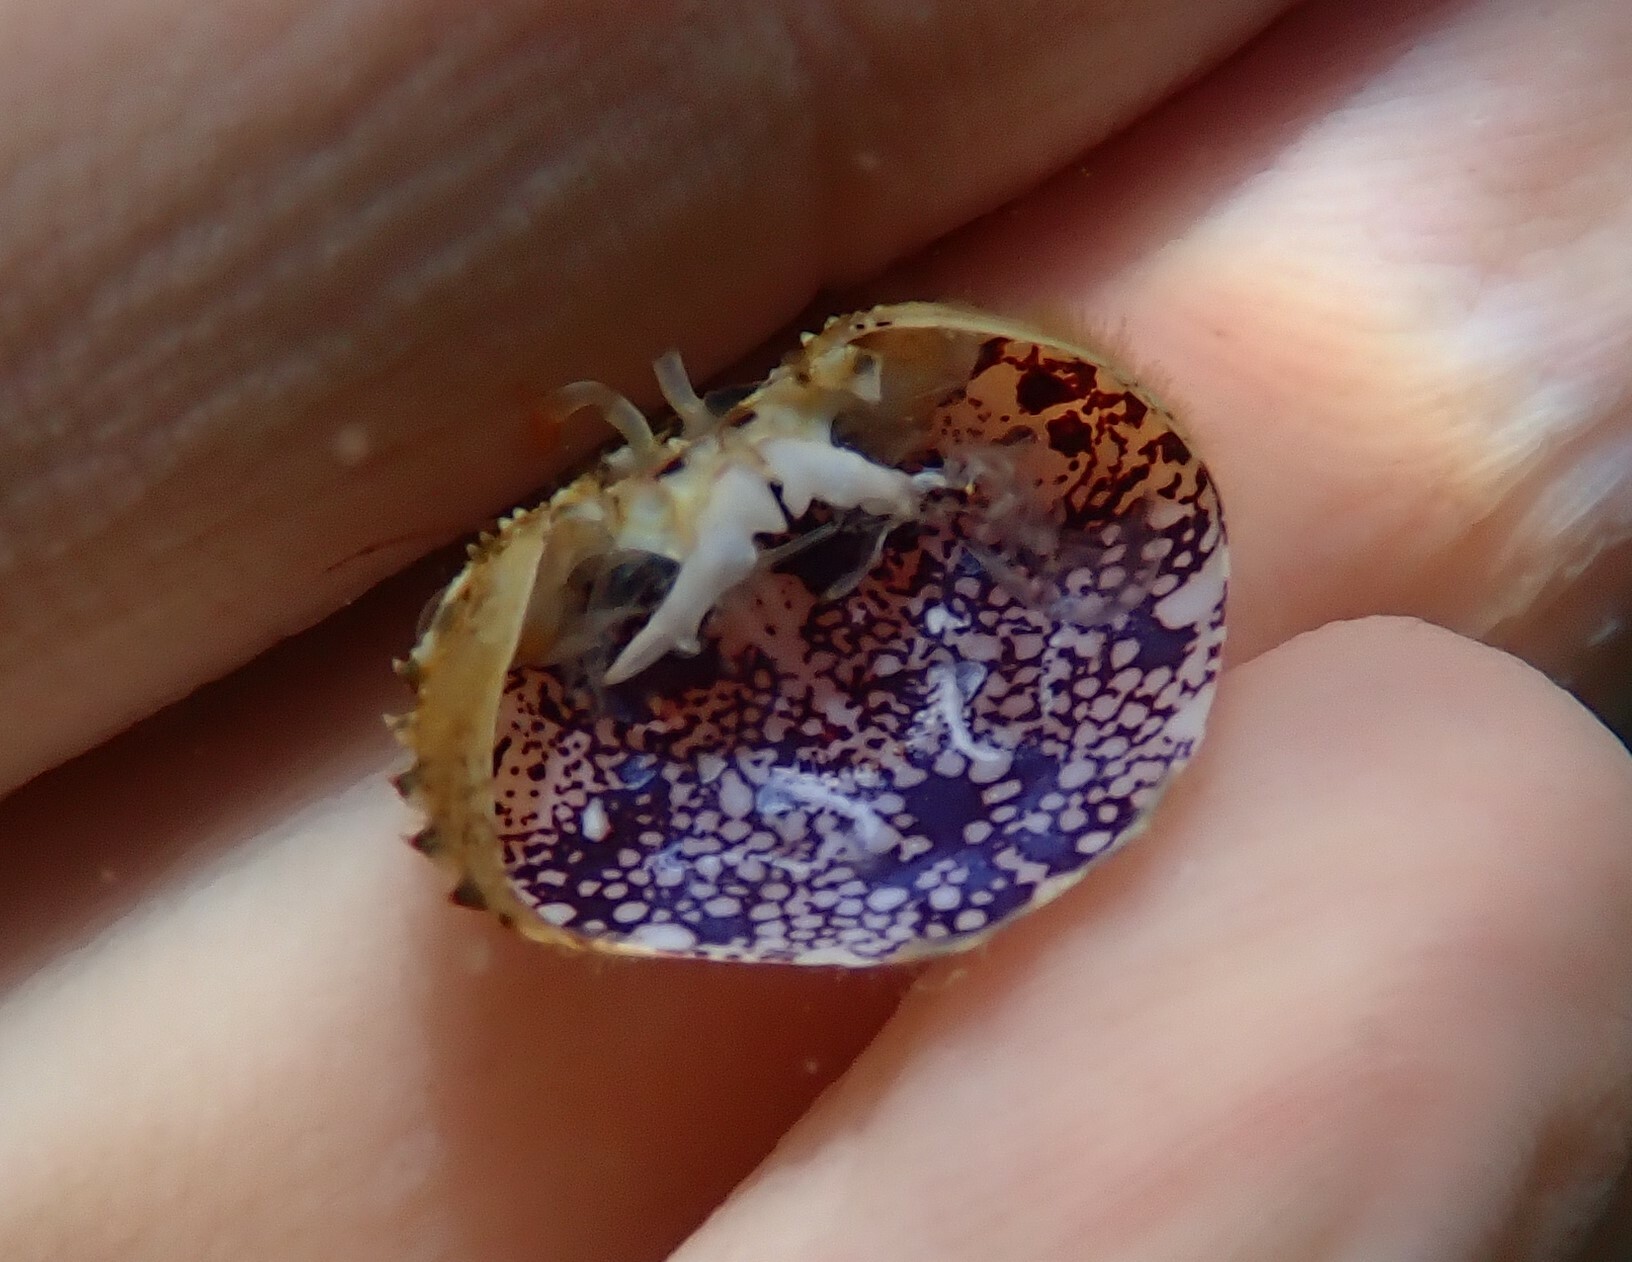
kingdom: Animalia
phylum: Arthropoda
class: Malacostraca
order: Decapoda
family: Eriphiidae
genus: Eriphia
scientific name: Eriphia verrucosa
